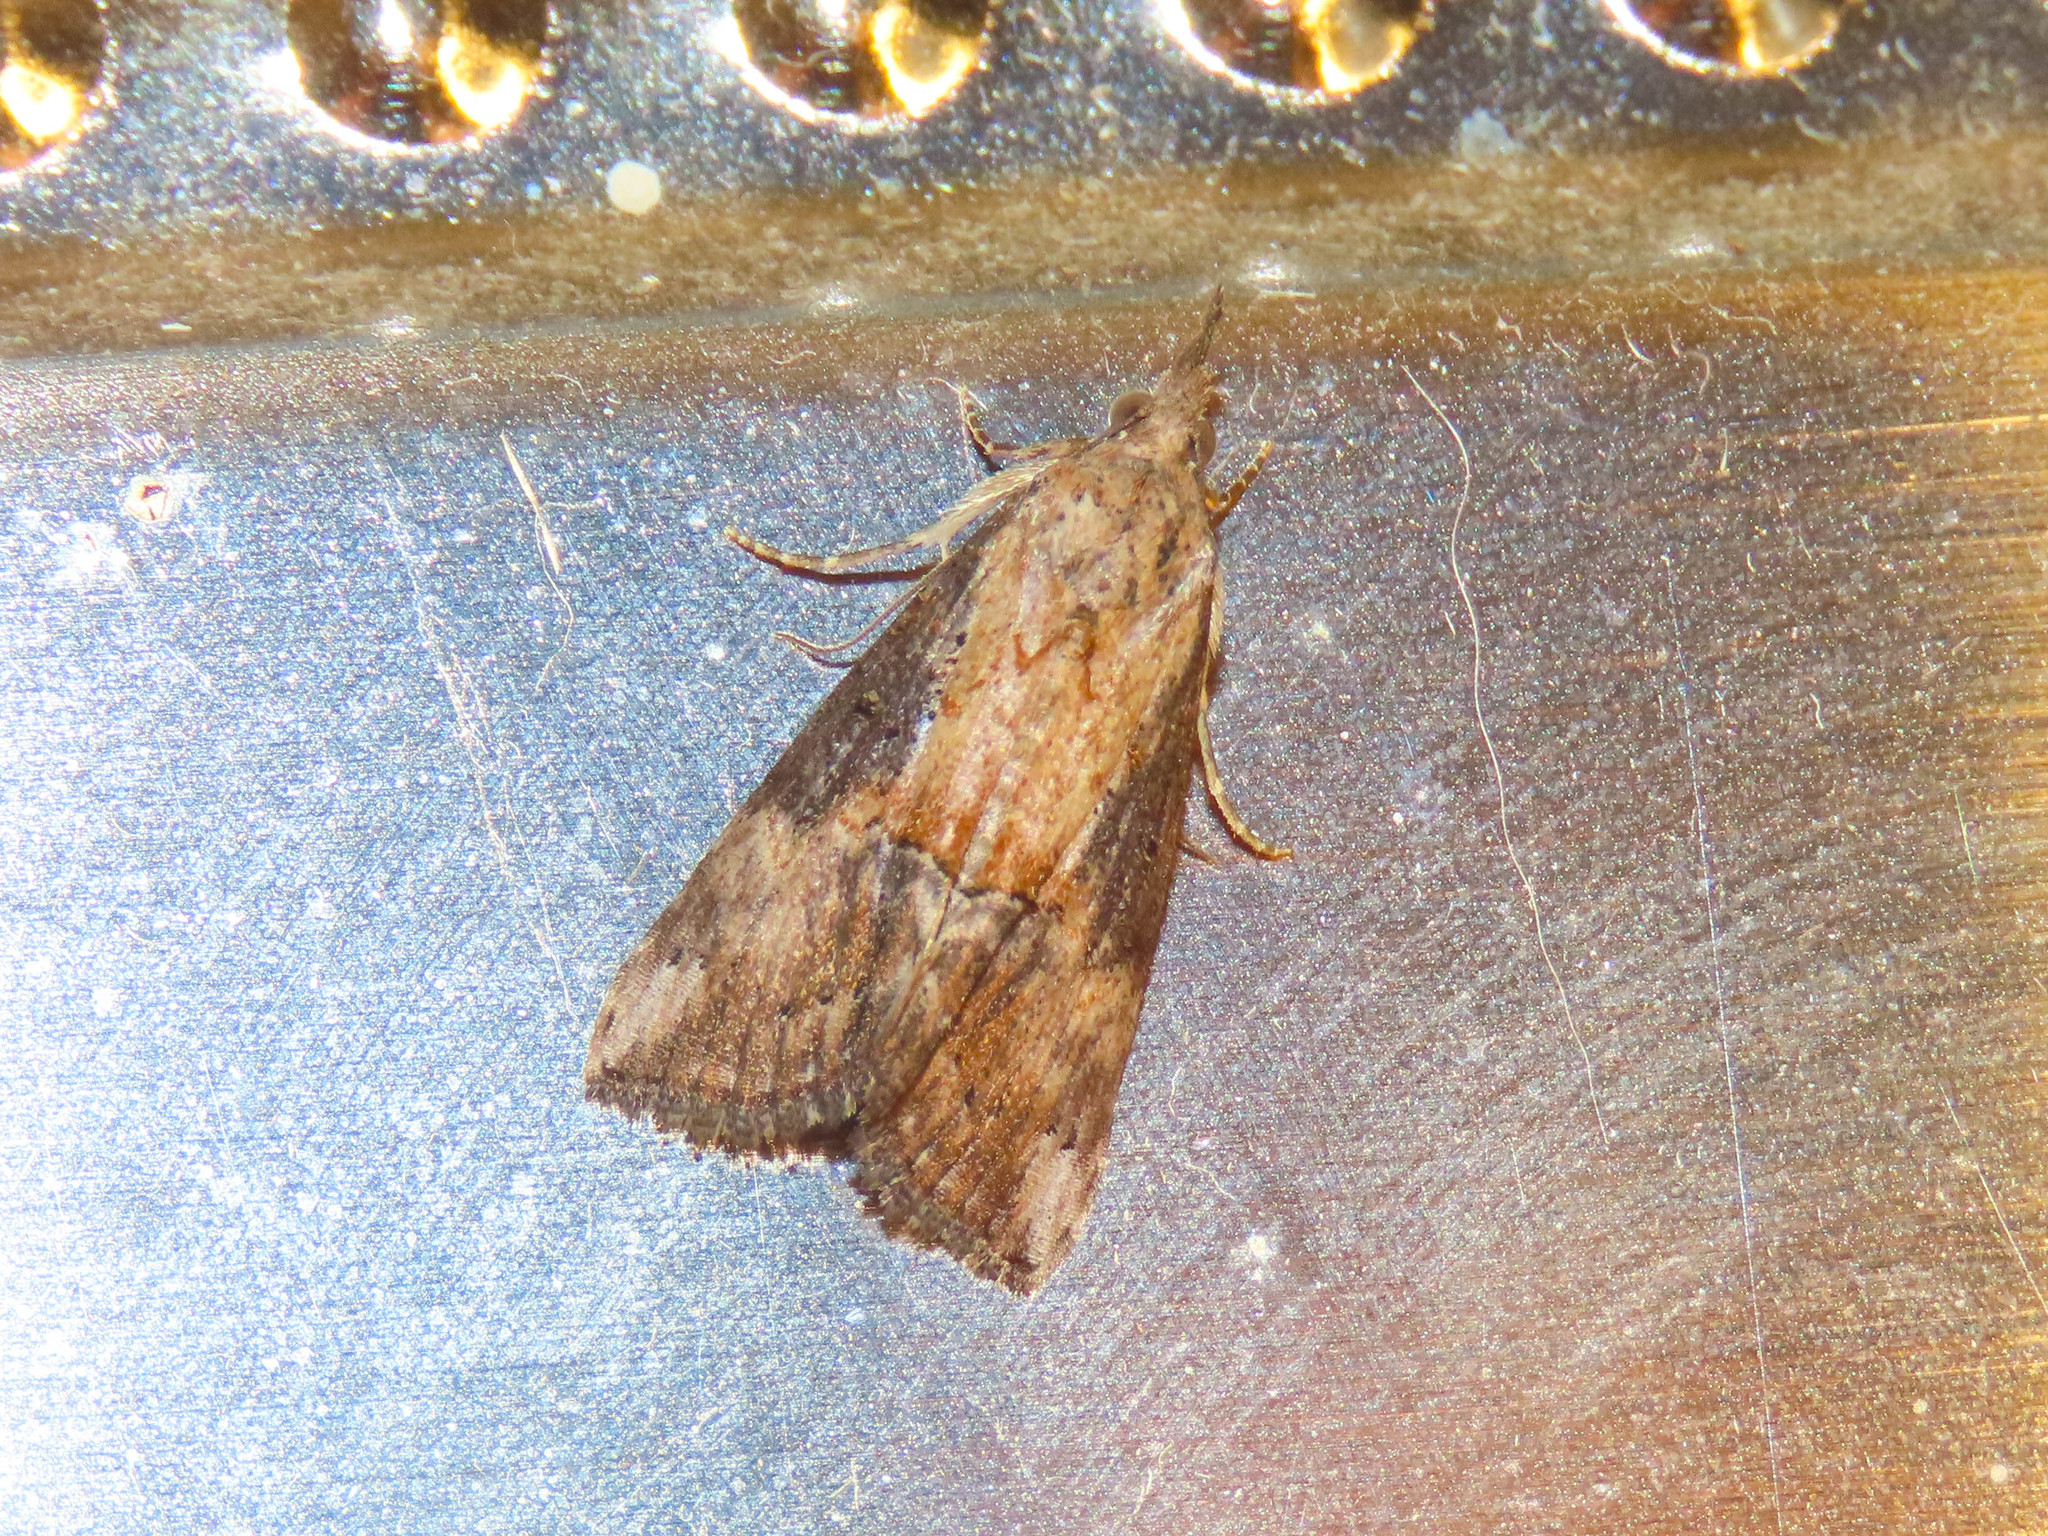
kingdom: Animalia
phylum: Arthropoda
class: Insecta
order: Lepidoptera
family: Erebidae
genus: Hypena
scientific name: Hypena scabra
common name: Green cloverworm
